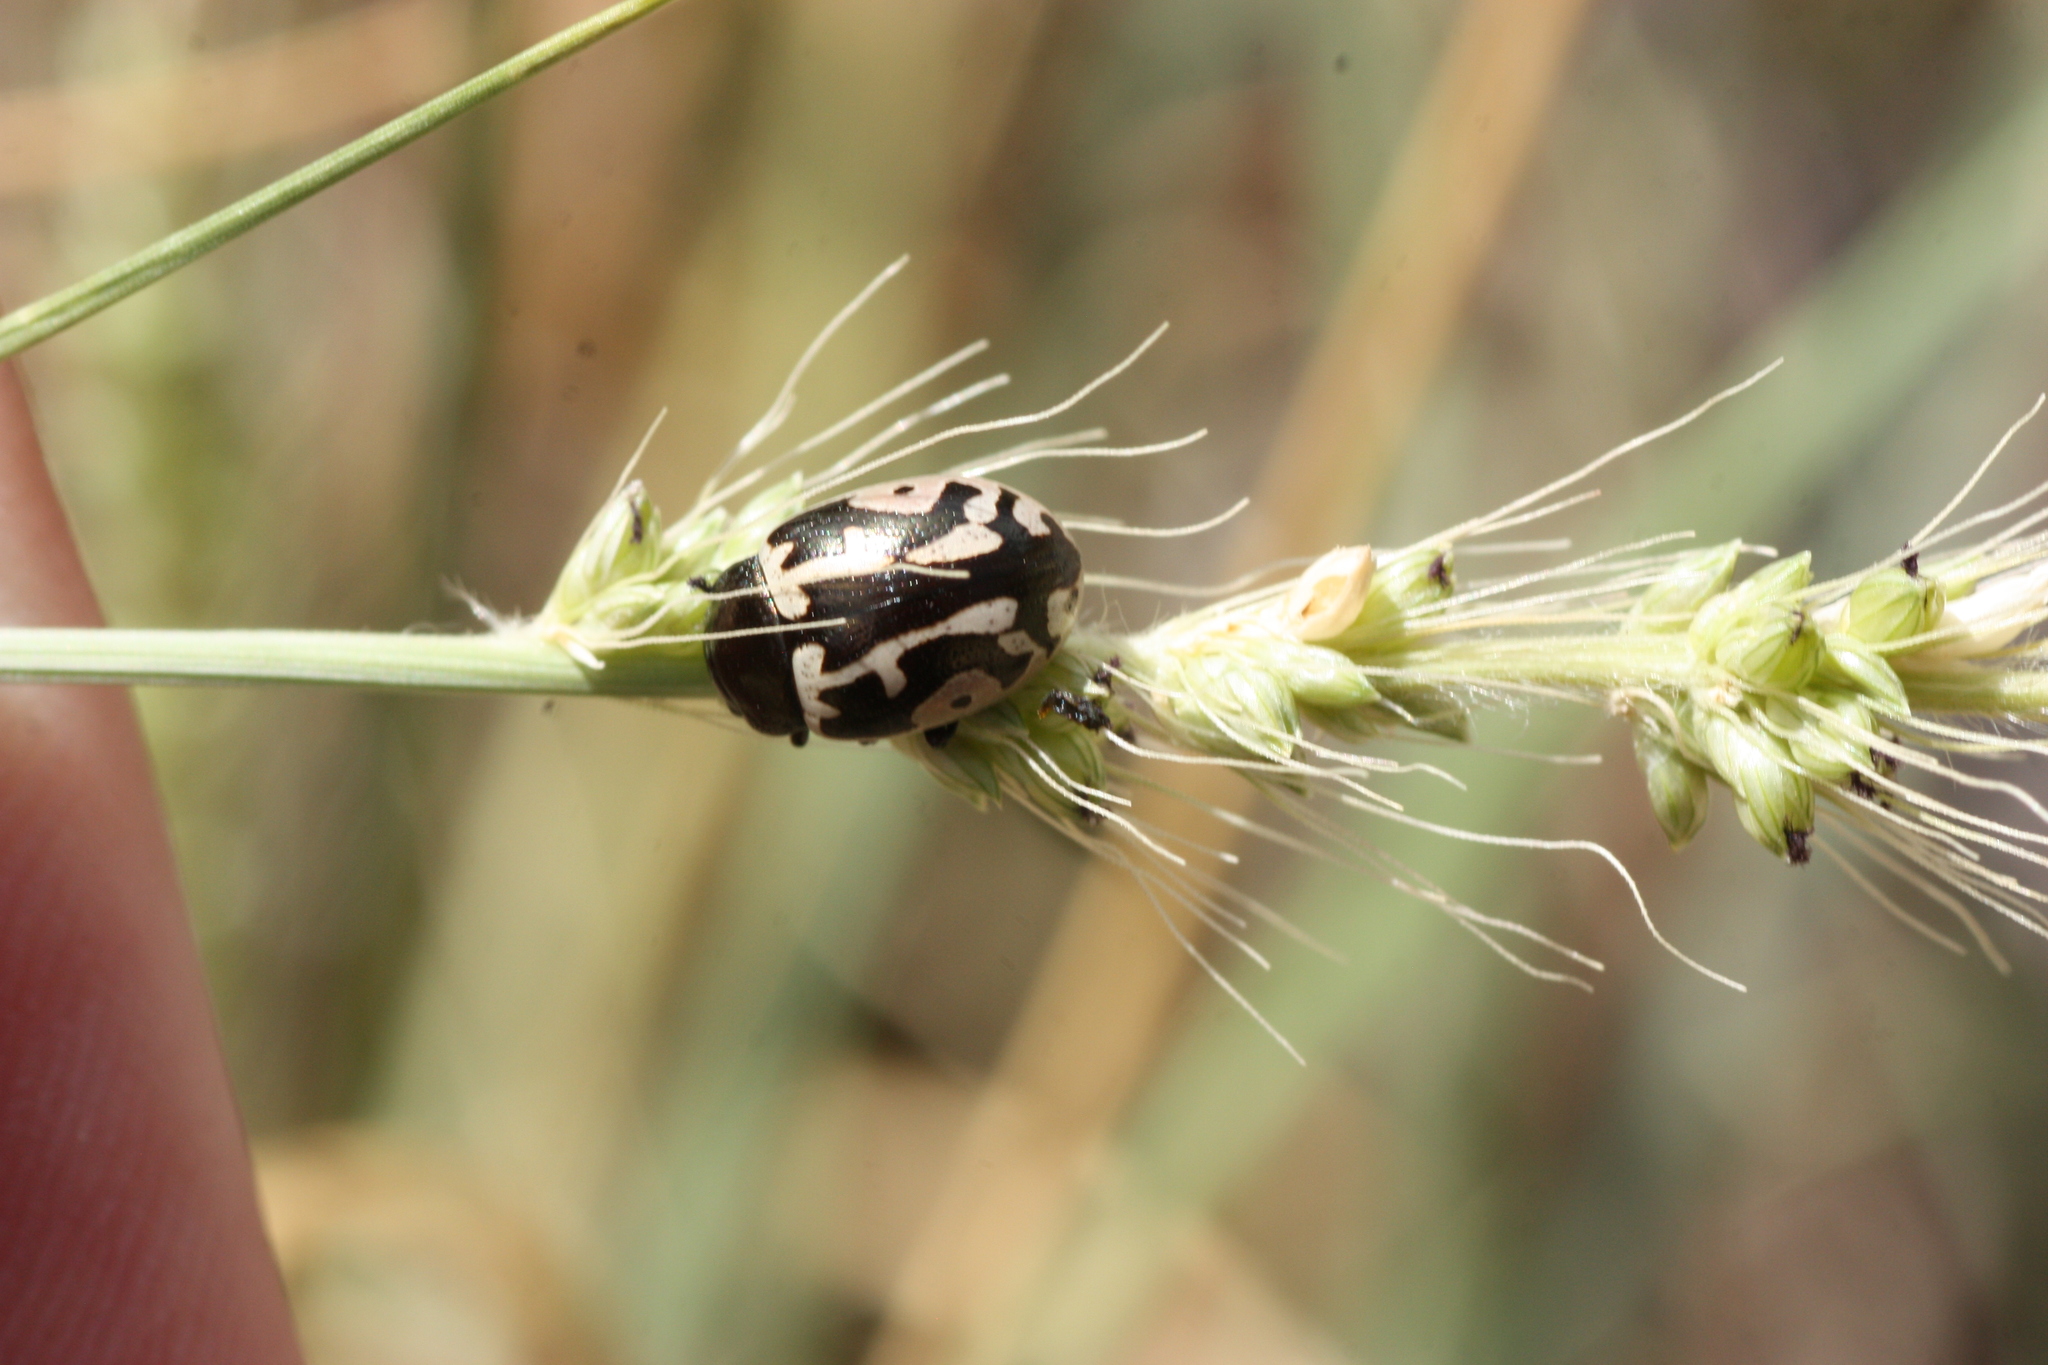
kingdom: Animalia
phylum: Arthropoda
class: Insecta
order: Coleoptera
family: Chrysomelidae
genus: Calligrapha
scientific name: Calligrapha
